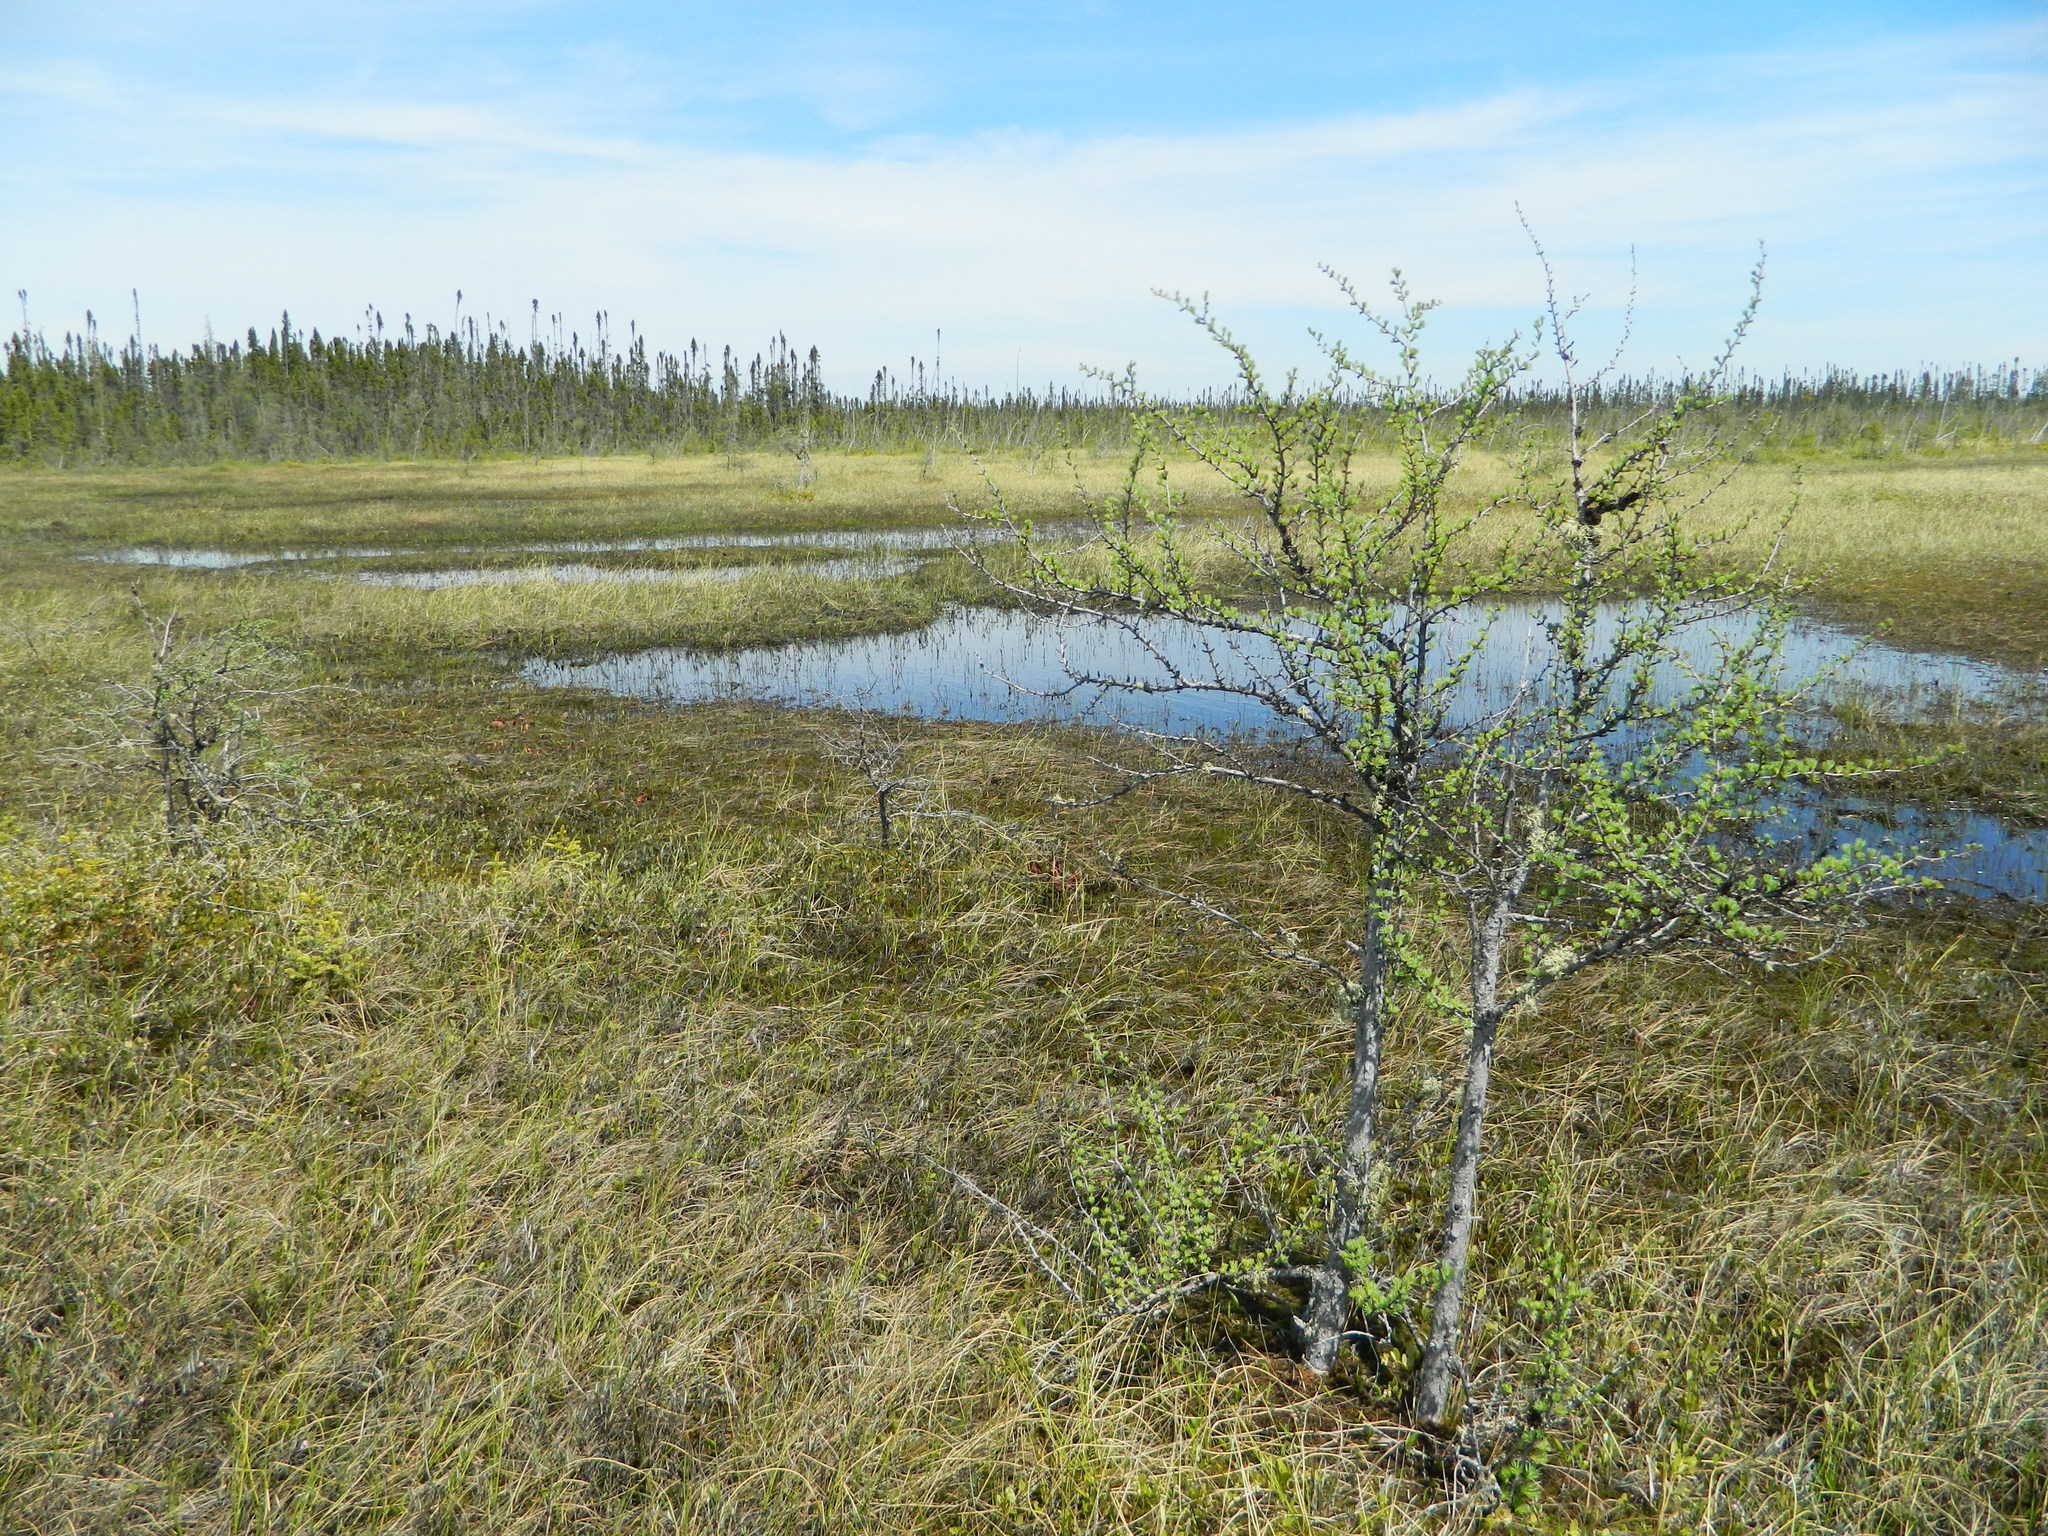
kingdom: Plantae
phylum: Tracheophyta
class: Pinopsida
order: Pinales
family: Pinaceae
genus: Larix
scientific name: Larix laricina
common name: American larch
